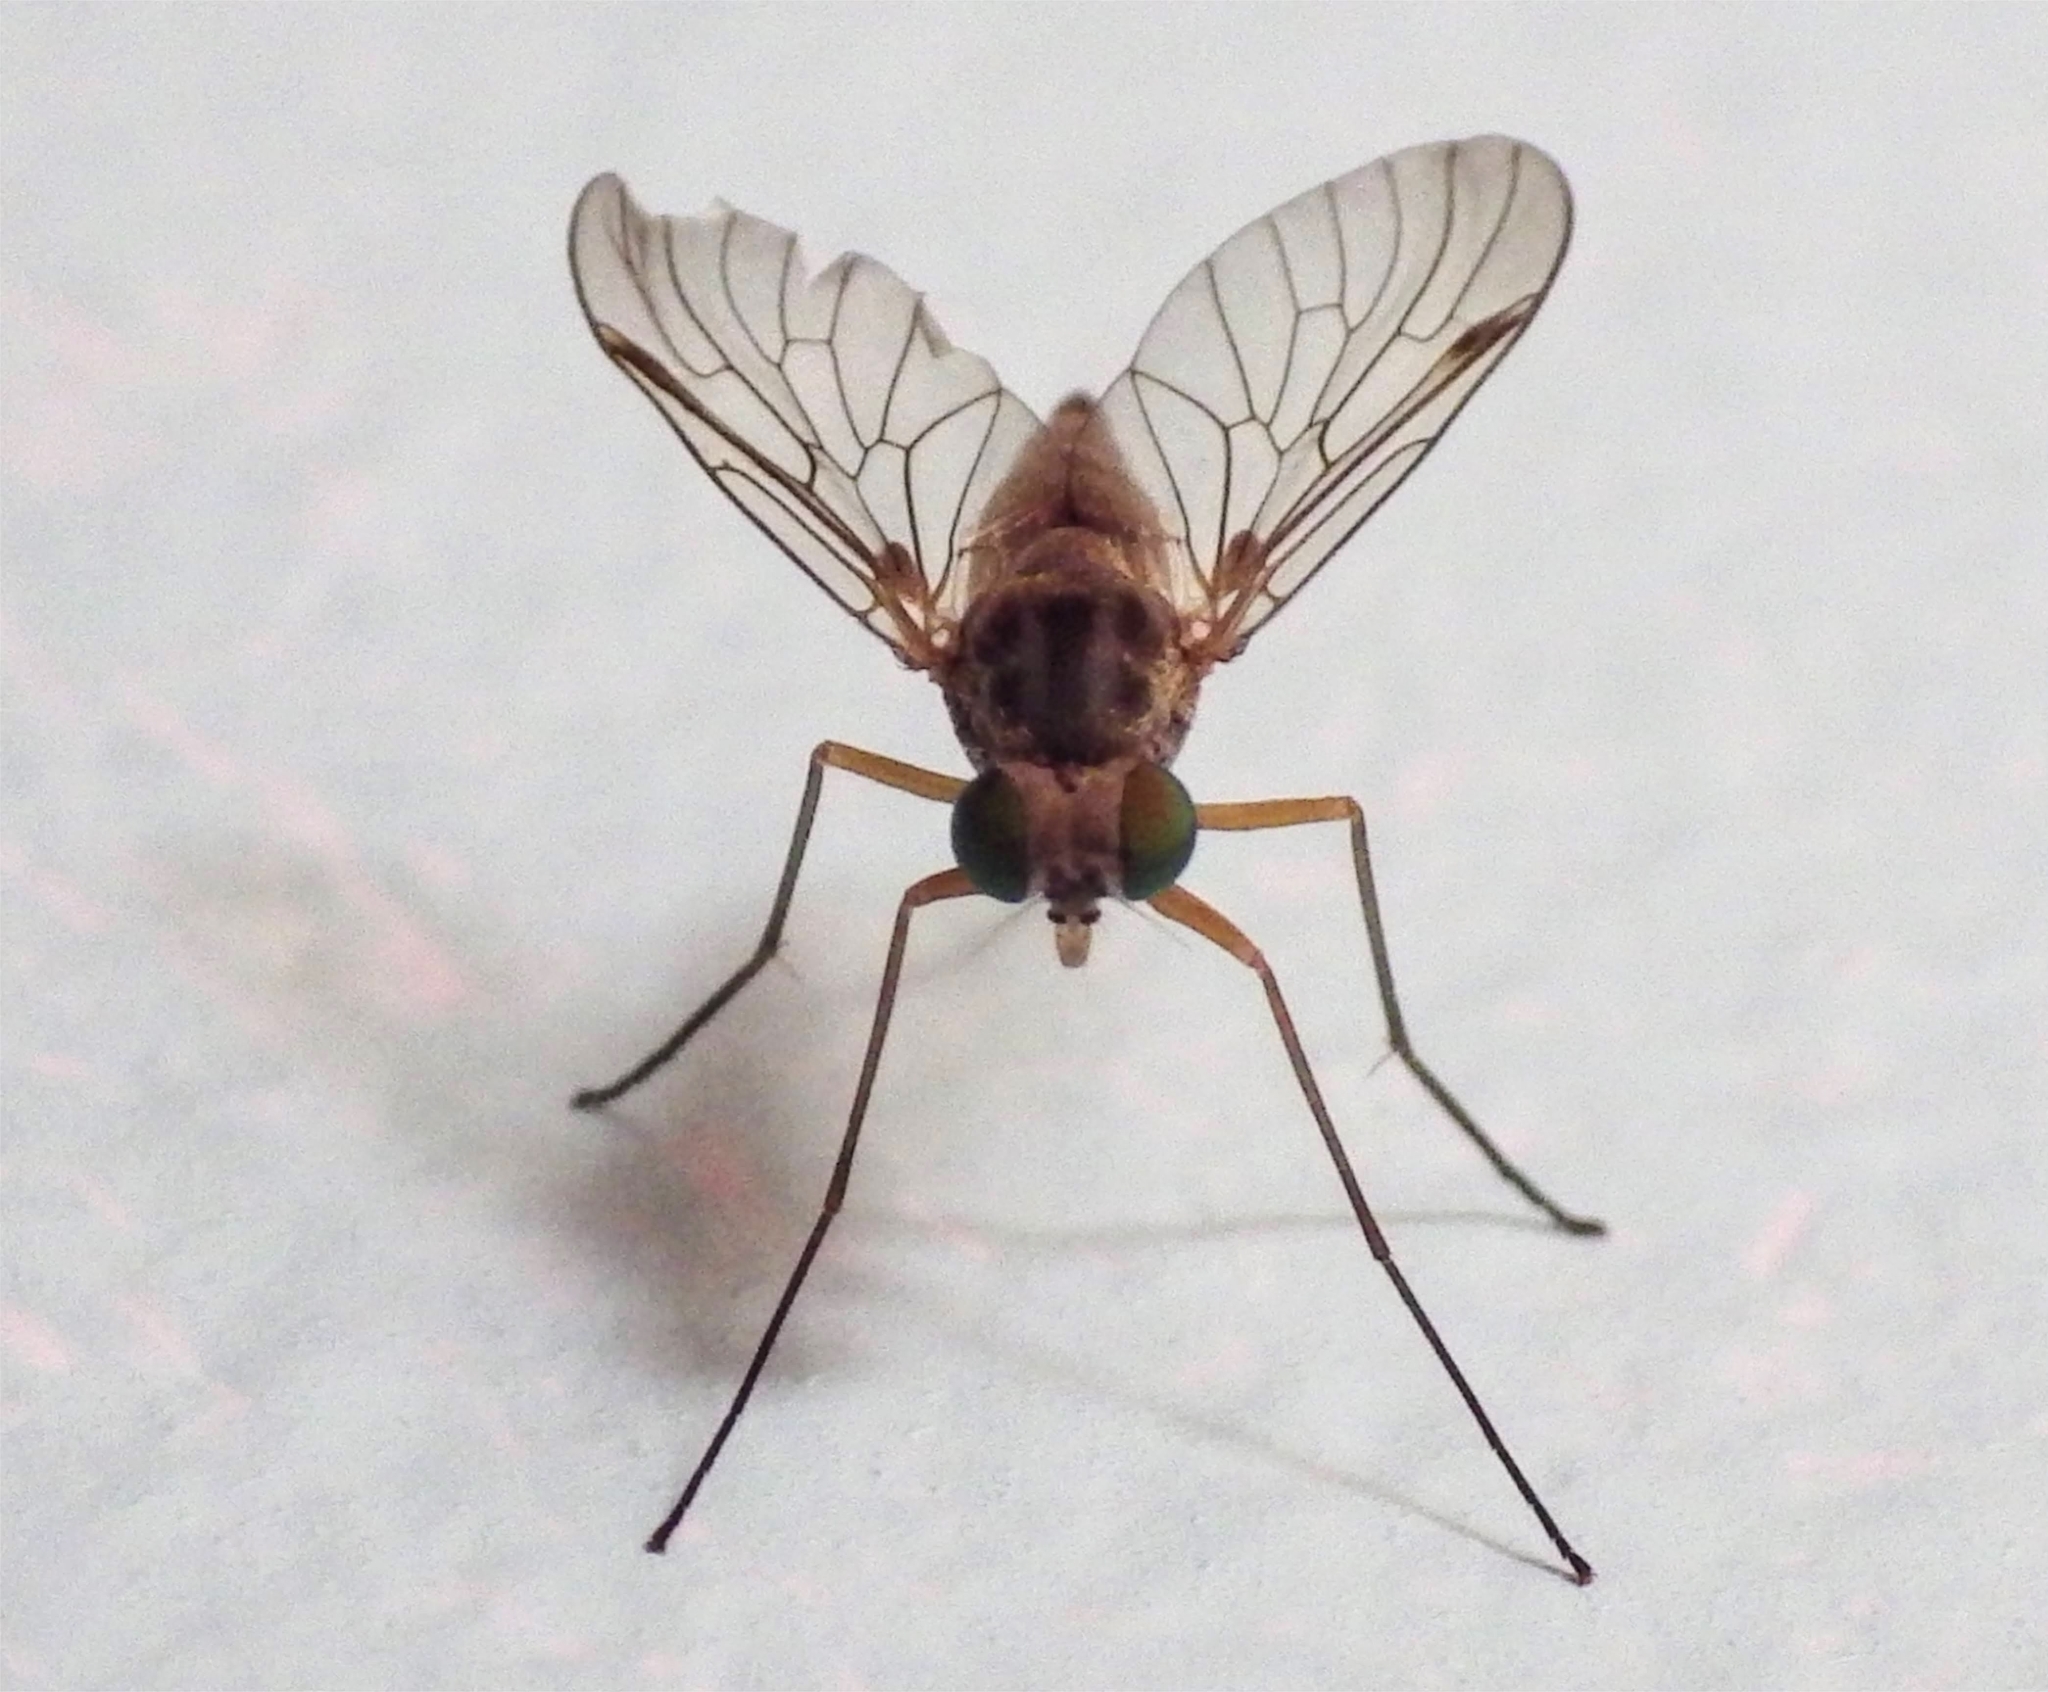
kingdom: Animalia
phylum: Arthropoda
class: Insecta
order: Diptera
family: Rhagionidae
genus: Chrysopilus
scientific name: Chrysopilus asiliformis
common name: Little snipefly
